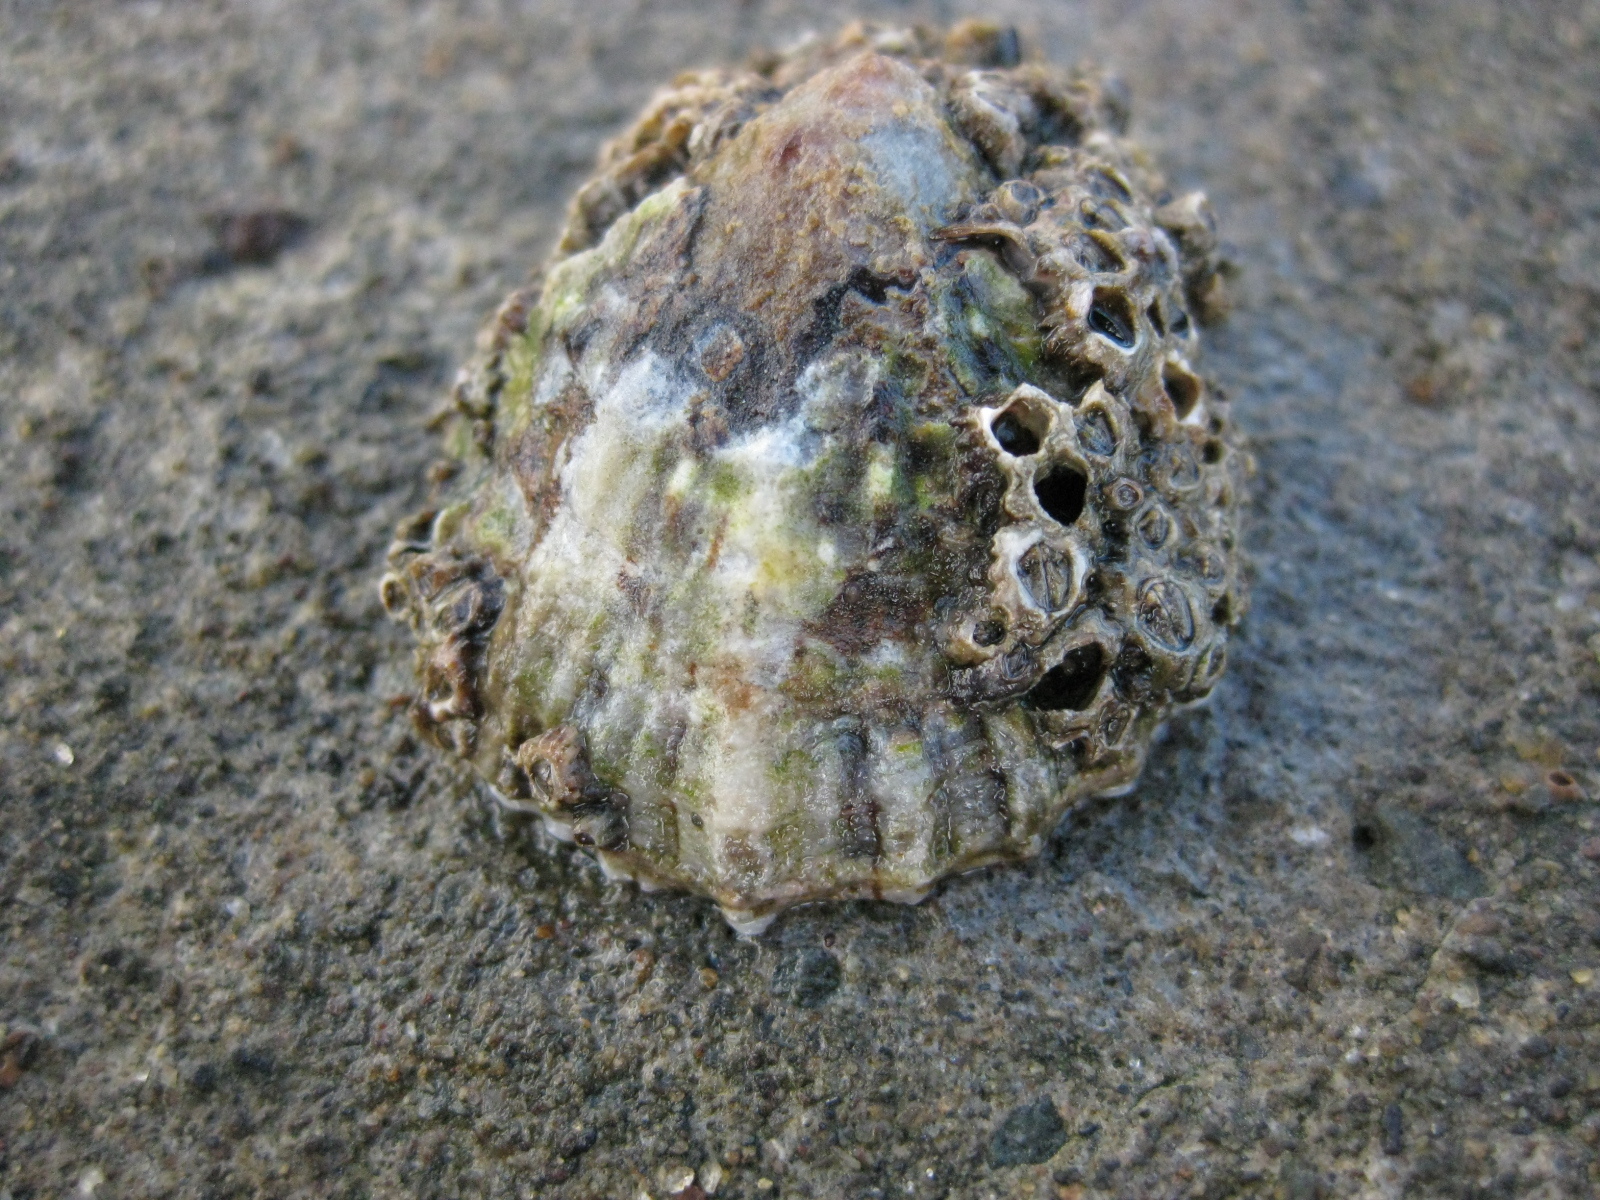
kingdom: Animalia
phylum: Mollusca
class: Gastropoda
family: Nacellidae
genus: Cellana
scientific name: Cellana ornata
